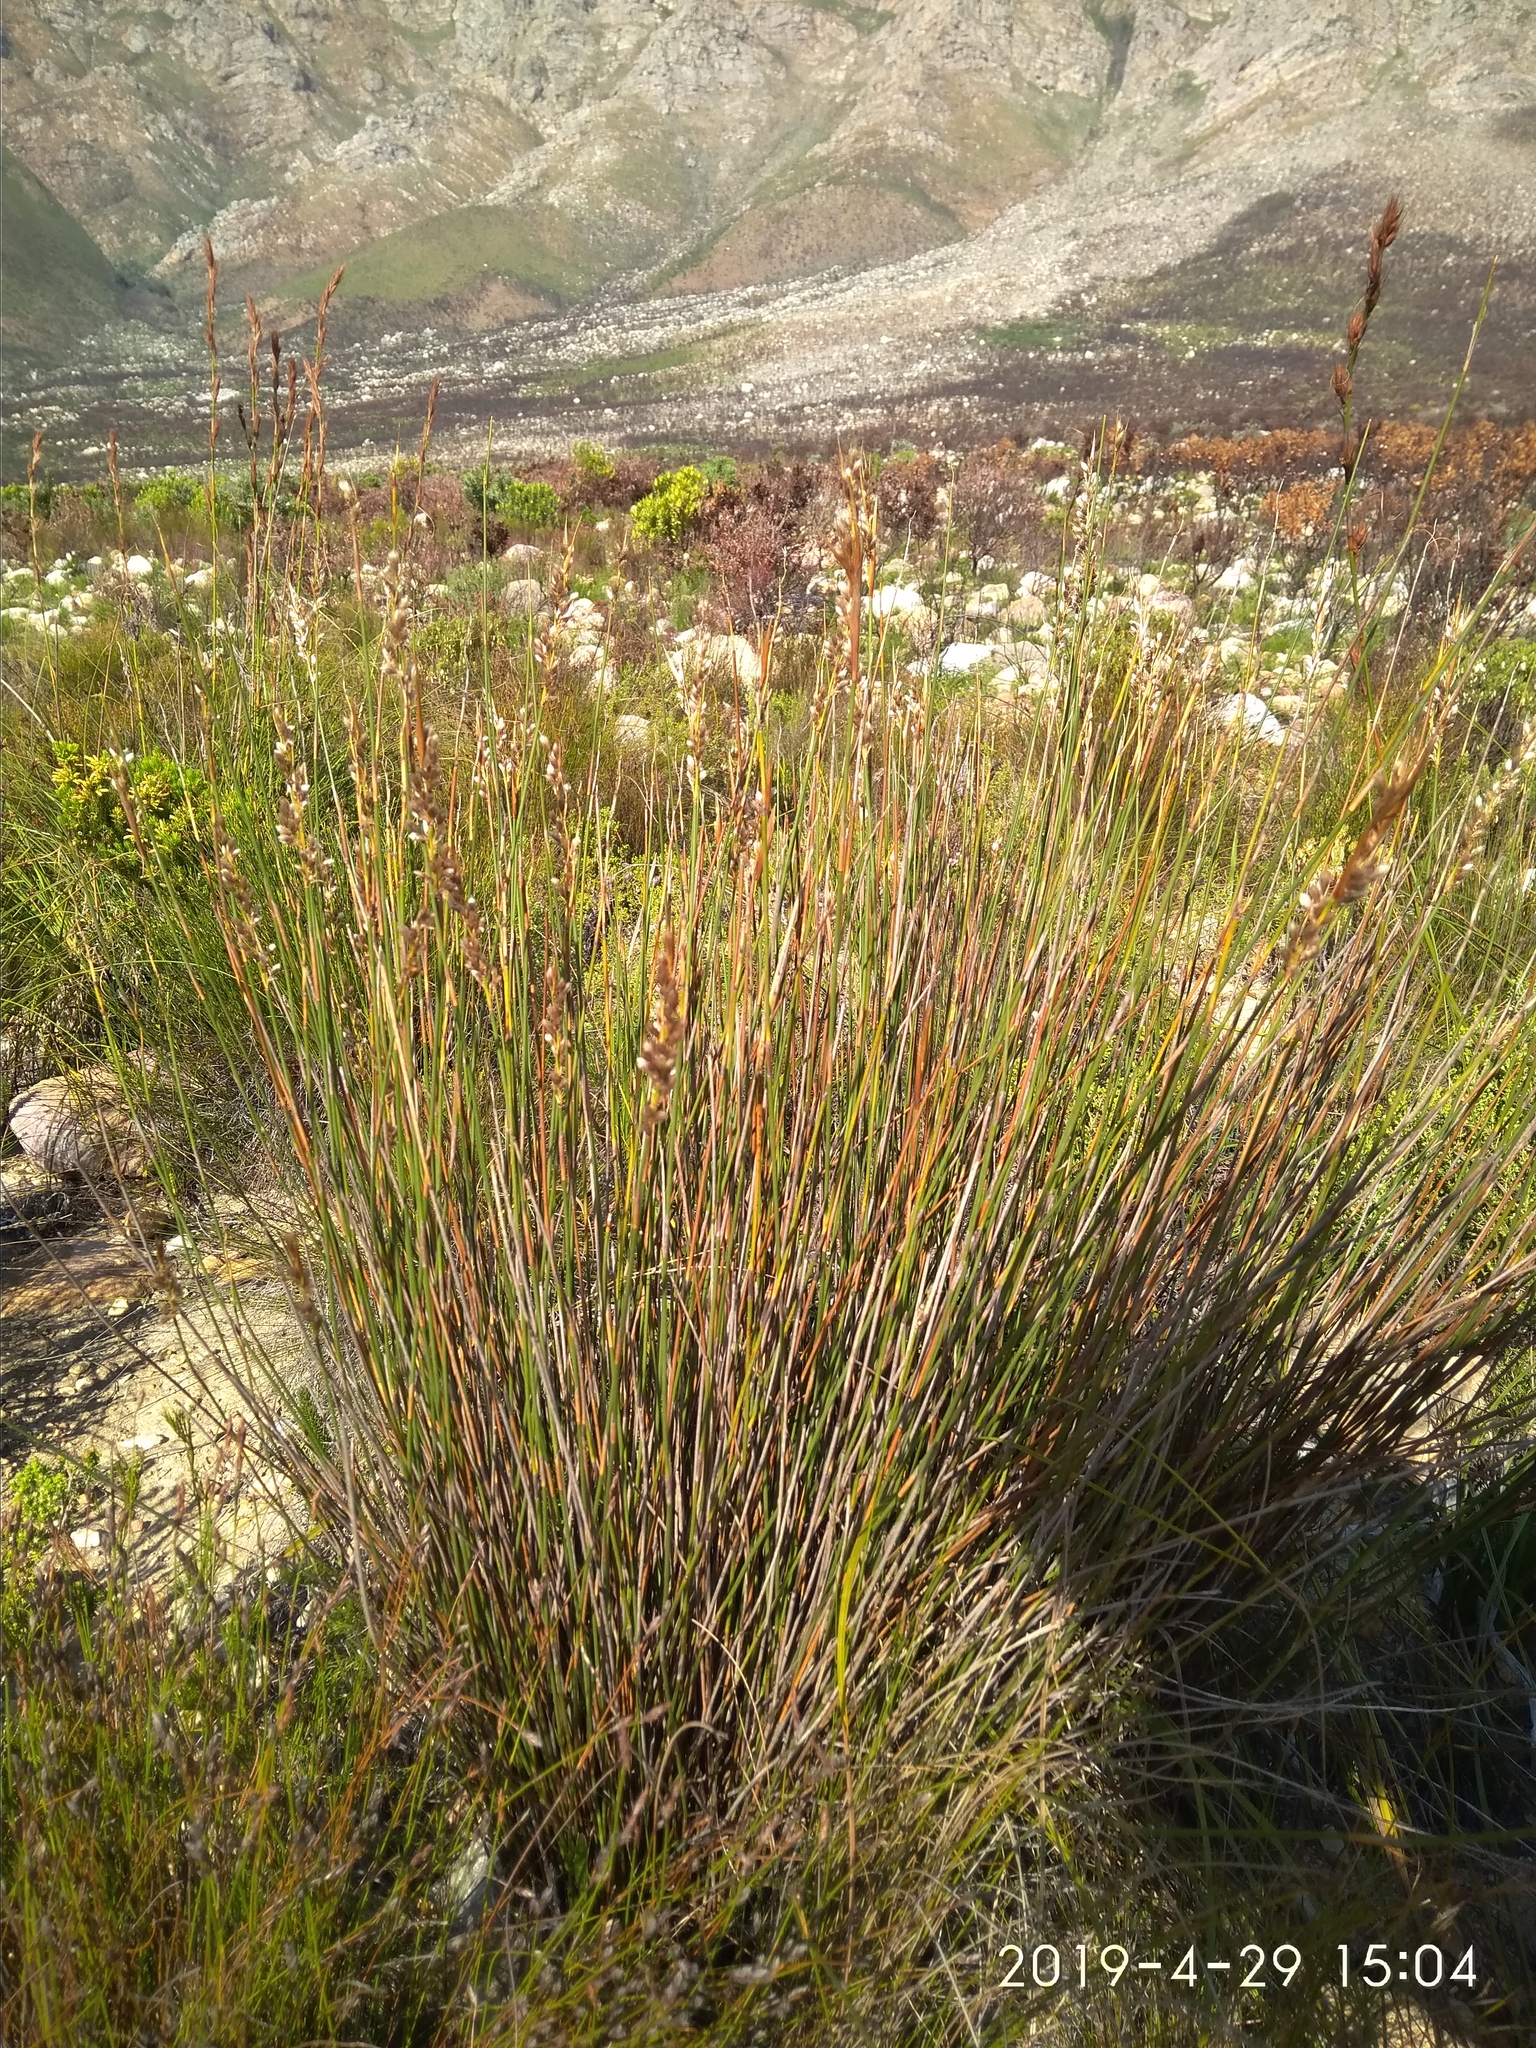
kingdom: Plantae
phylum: Tracheophyta
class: Liliopsida
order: Poales
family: Restionaceae
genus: Hypodiscus
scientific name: Hypodiscus aristatus
